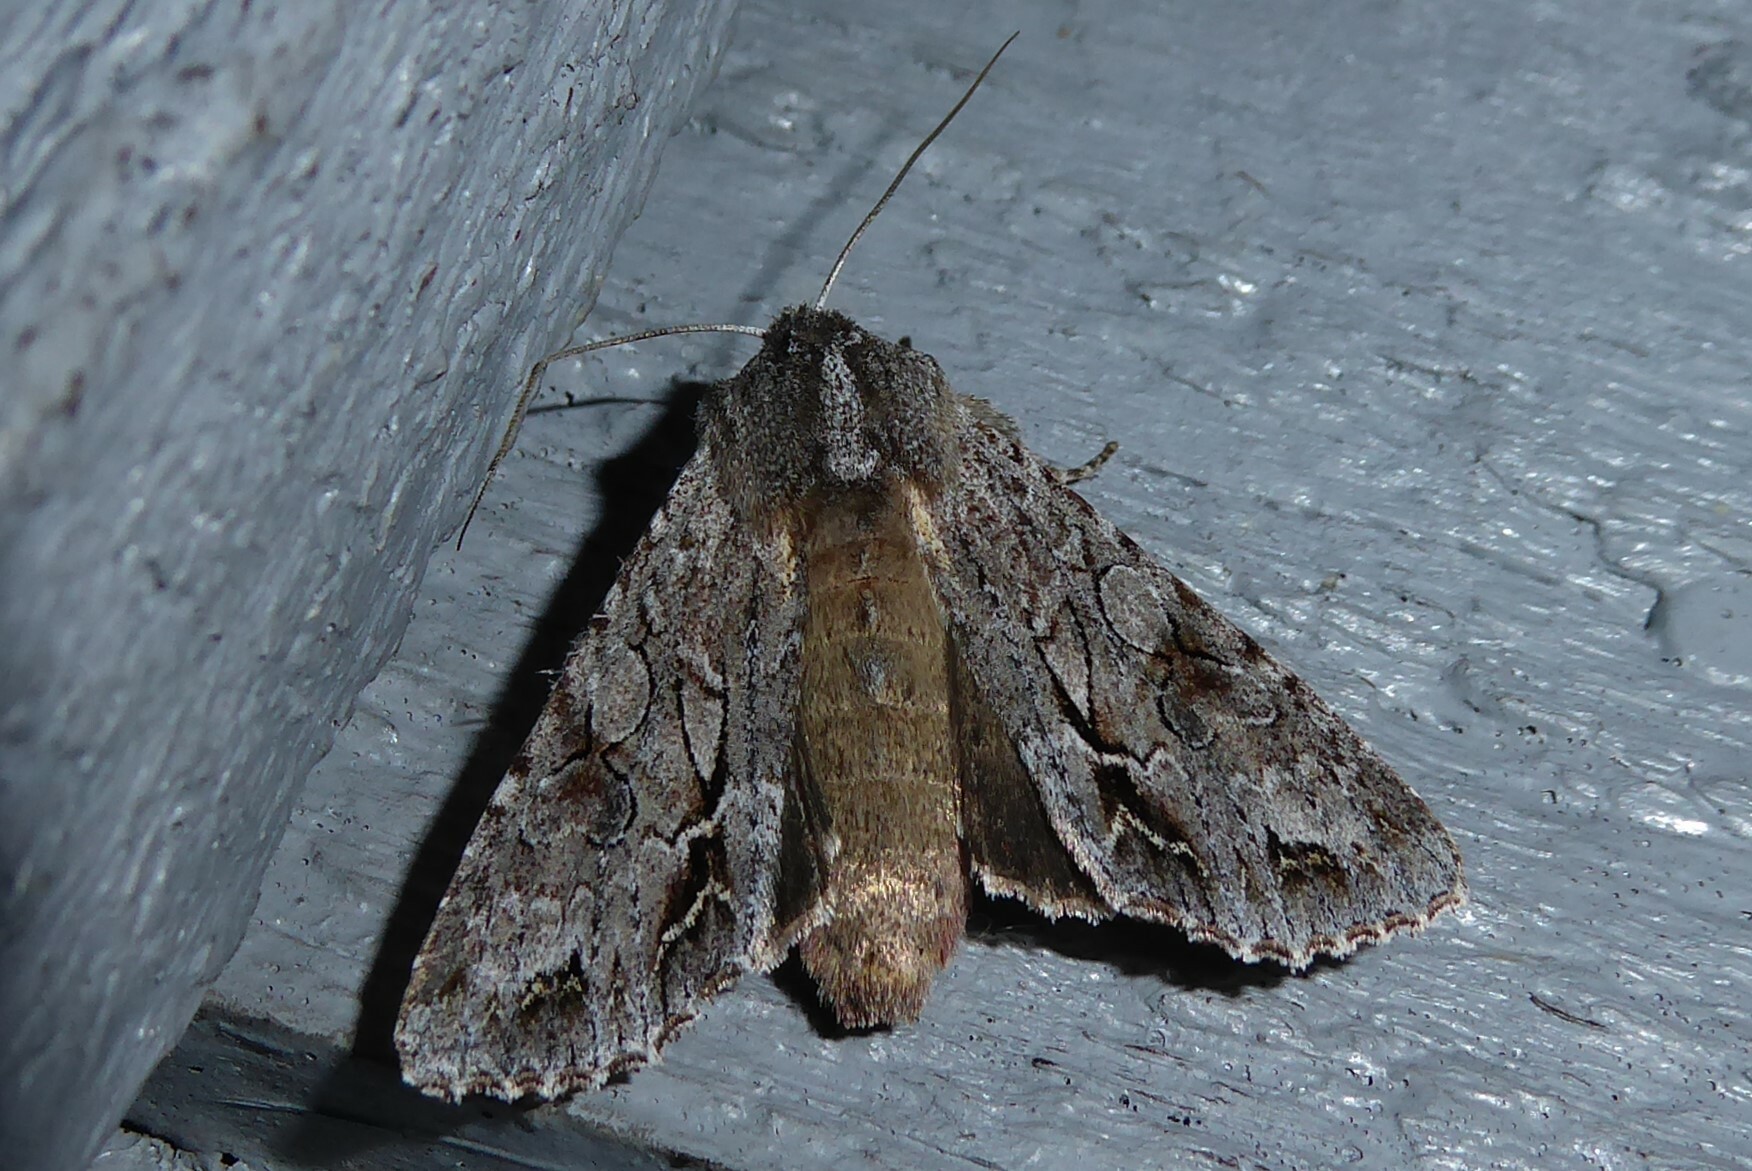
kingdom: Animalia
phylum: Arthropoda
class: Insecta
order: Lepidoptera
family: Noctuidae
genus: Ichneutica
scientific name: Ichneutica
